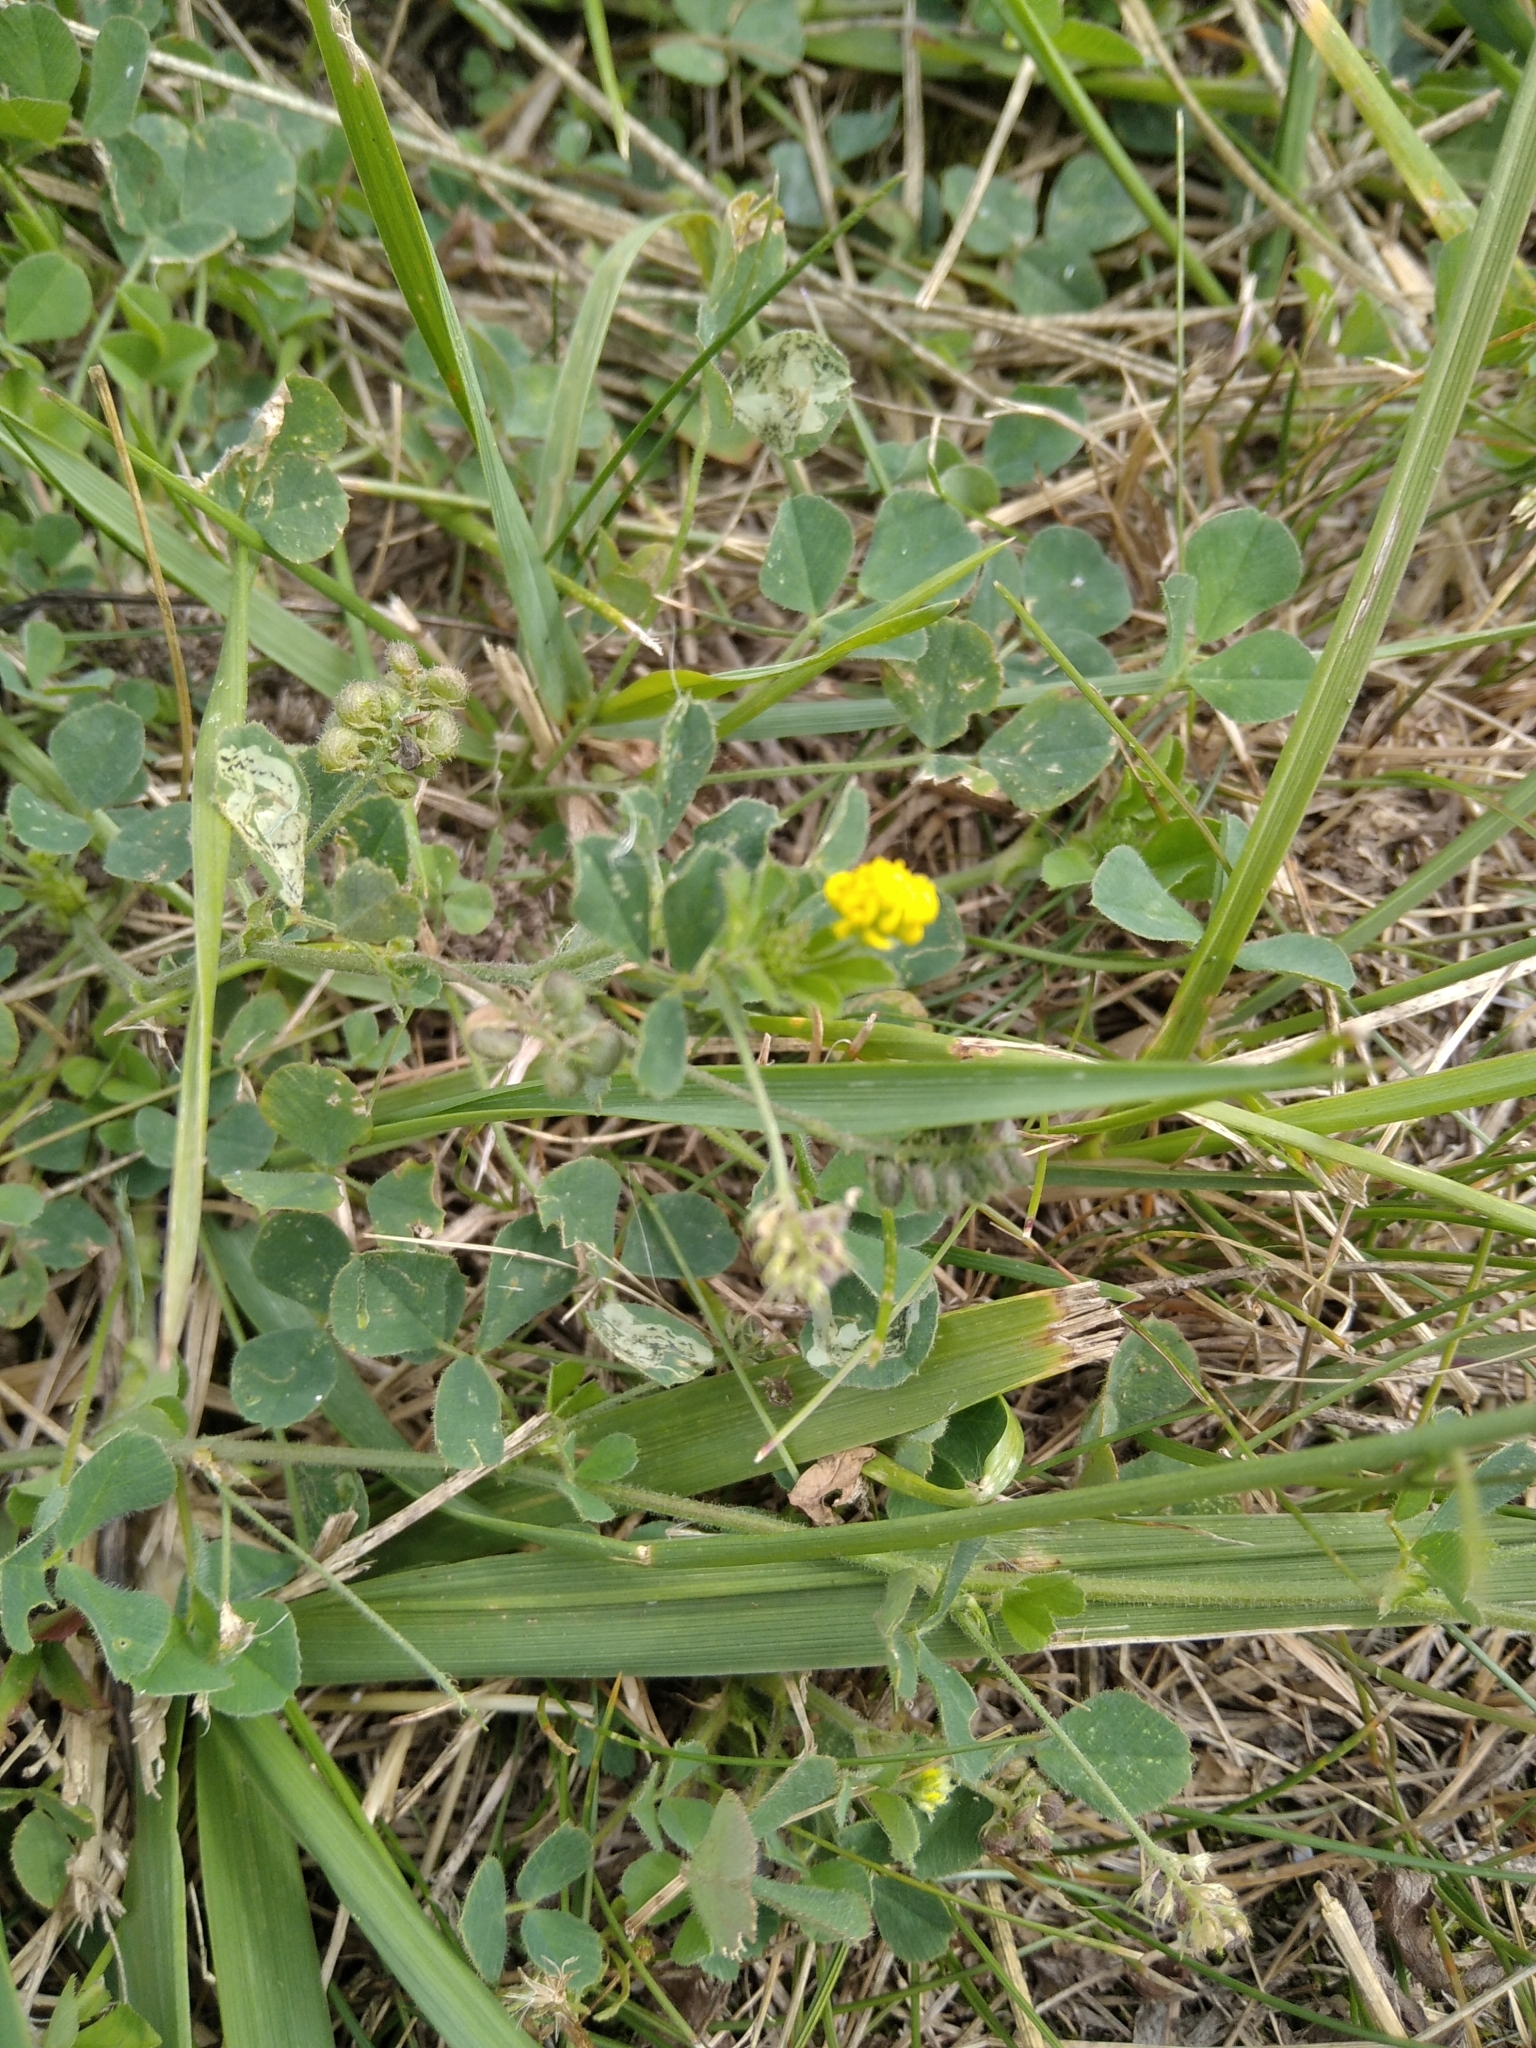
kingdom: Plantae
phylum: Tracheophyta
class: Magnoliopsida
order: Fabales
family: Fabaceae
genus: Medicago
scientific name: Medicago lupulina
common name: Black medick
